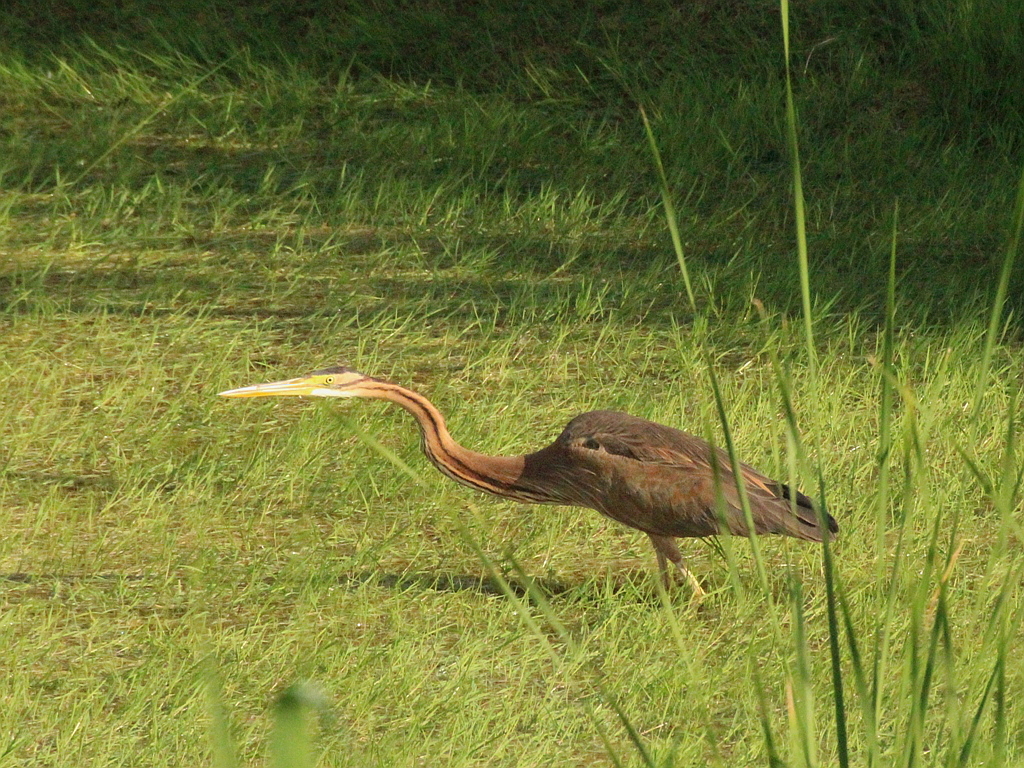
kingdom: Animalia
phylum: Chordata
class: Aves
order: Pelecaniformes
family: Ardeidae
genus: Ardea
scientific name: Ardea purpurea
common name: Purple heron
